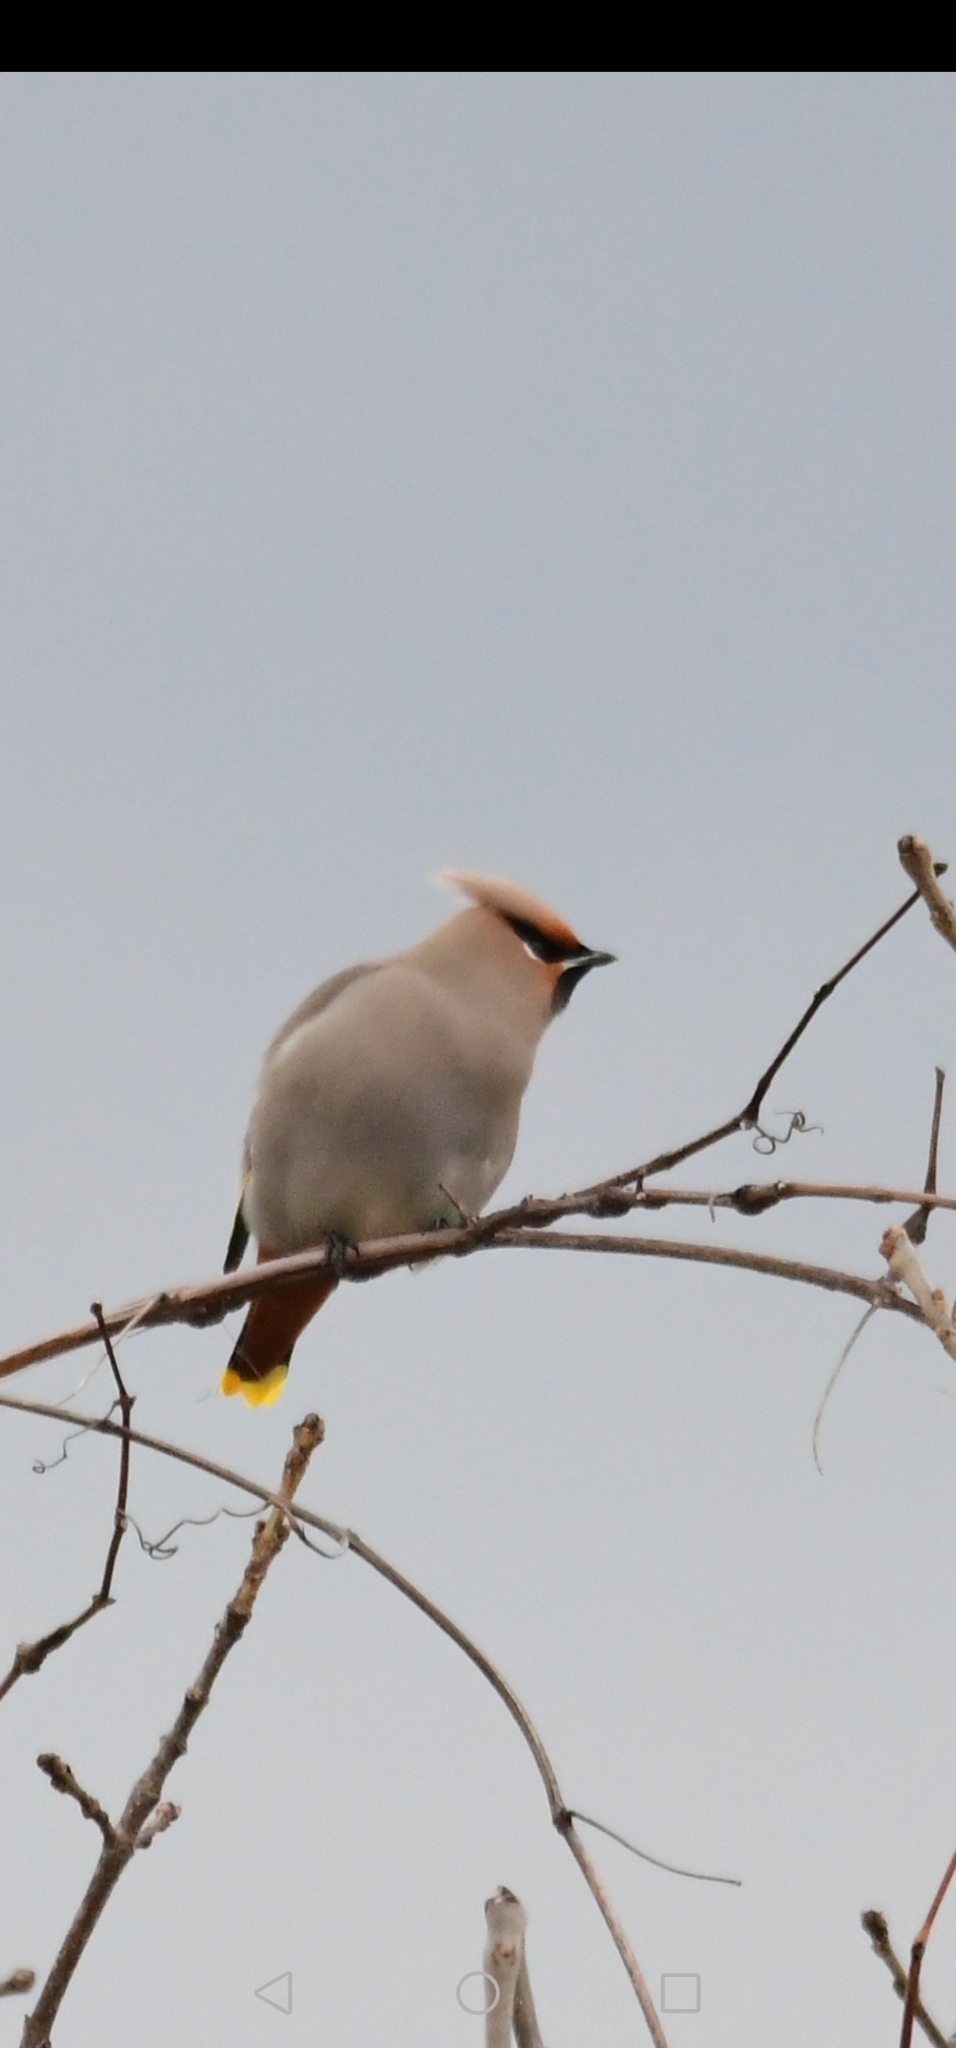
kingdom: Animalia
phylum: Chordata
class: Aves
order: Passeriformes
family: Bombycillidae
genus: Bombycilla
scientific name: Bombycilla garrulus
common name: Bohemian waxwing
